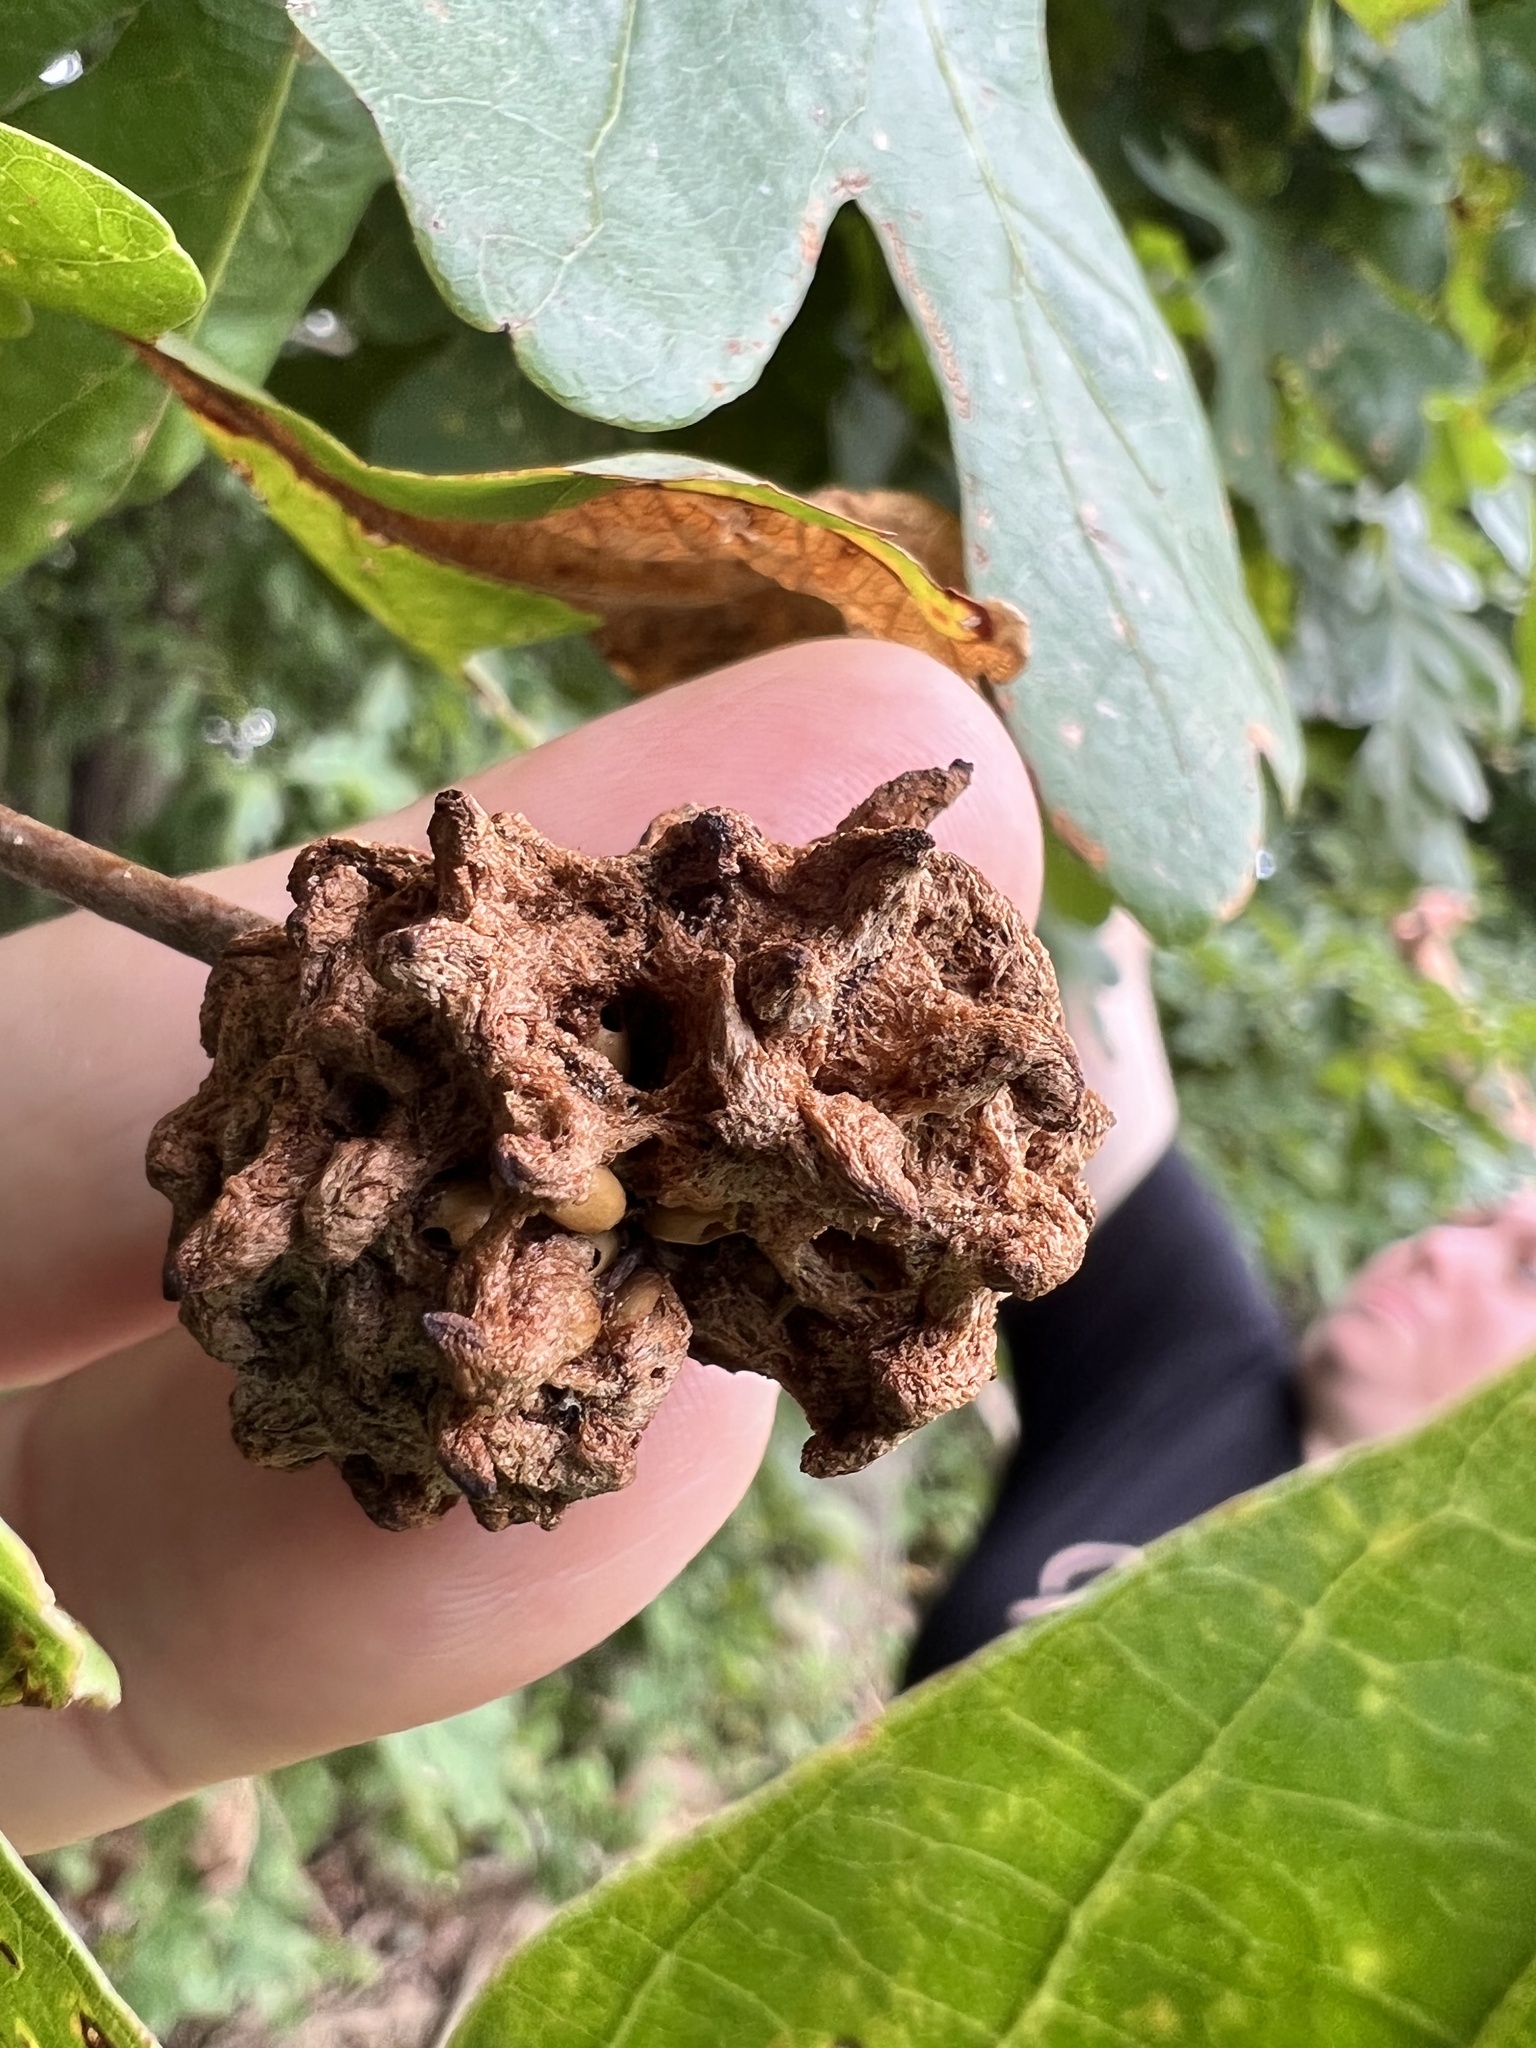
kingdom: Animalia
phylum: Arthropoda
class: Insecta
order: Hymenoptera
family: Cynipidae
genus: Callirhytis
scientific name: Callirhytis
